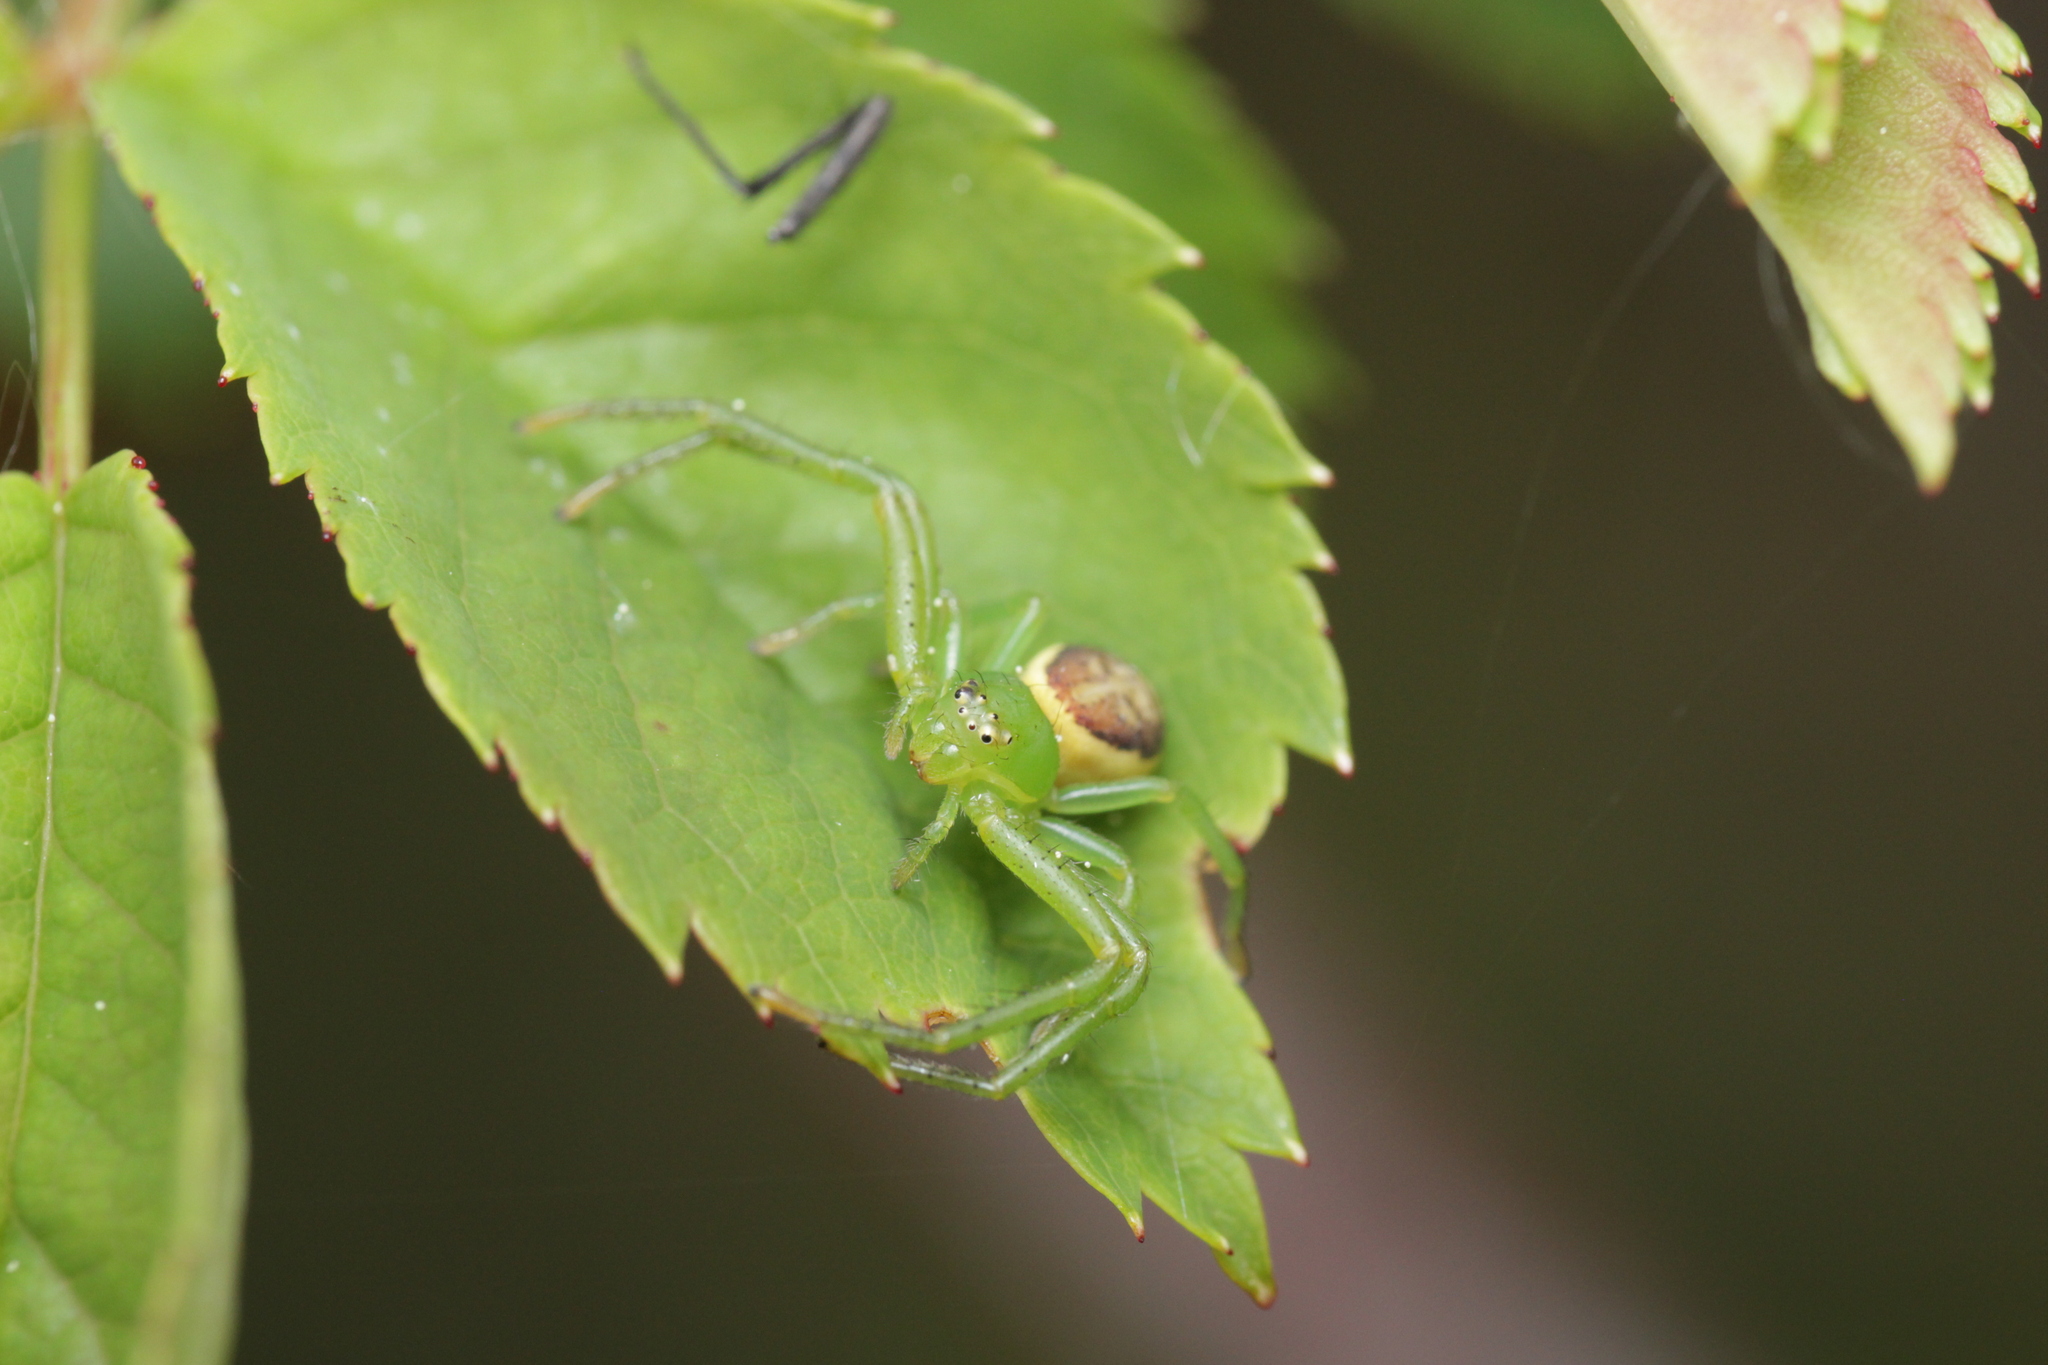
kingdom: Animalia
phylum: Arthropoda
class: Arachnida
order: Araneae
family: Thomisidae
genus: Diaea
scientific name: Diaea dorsata
